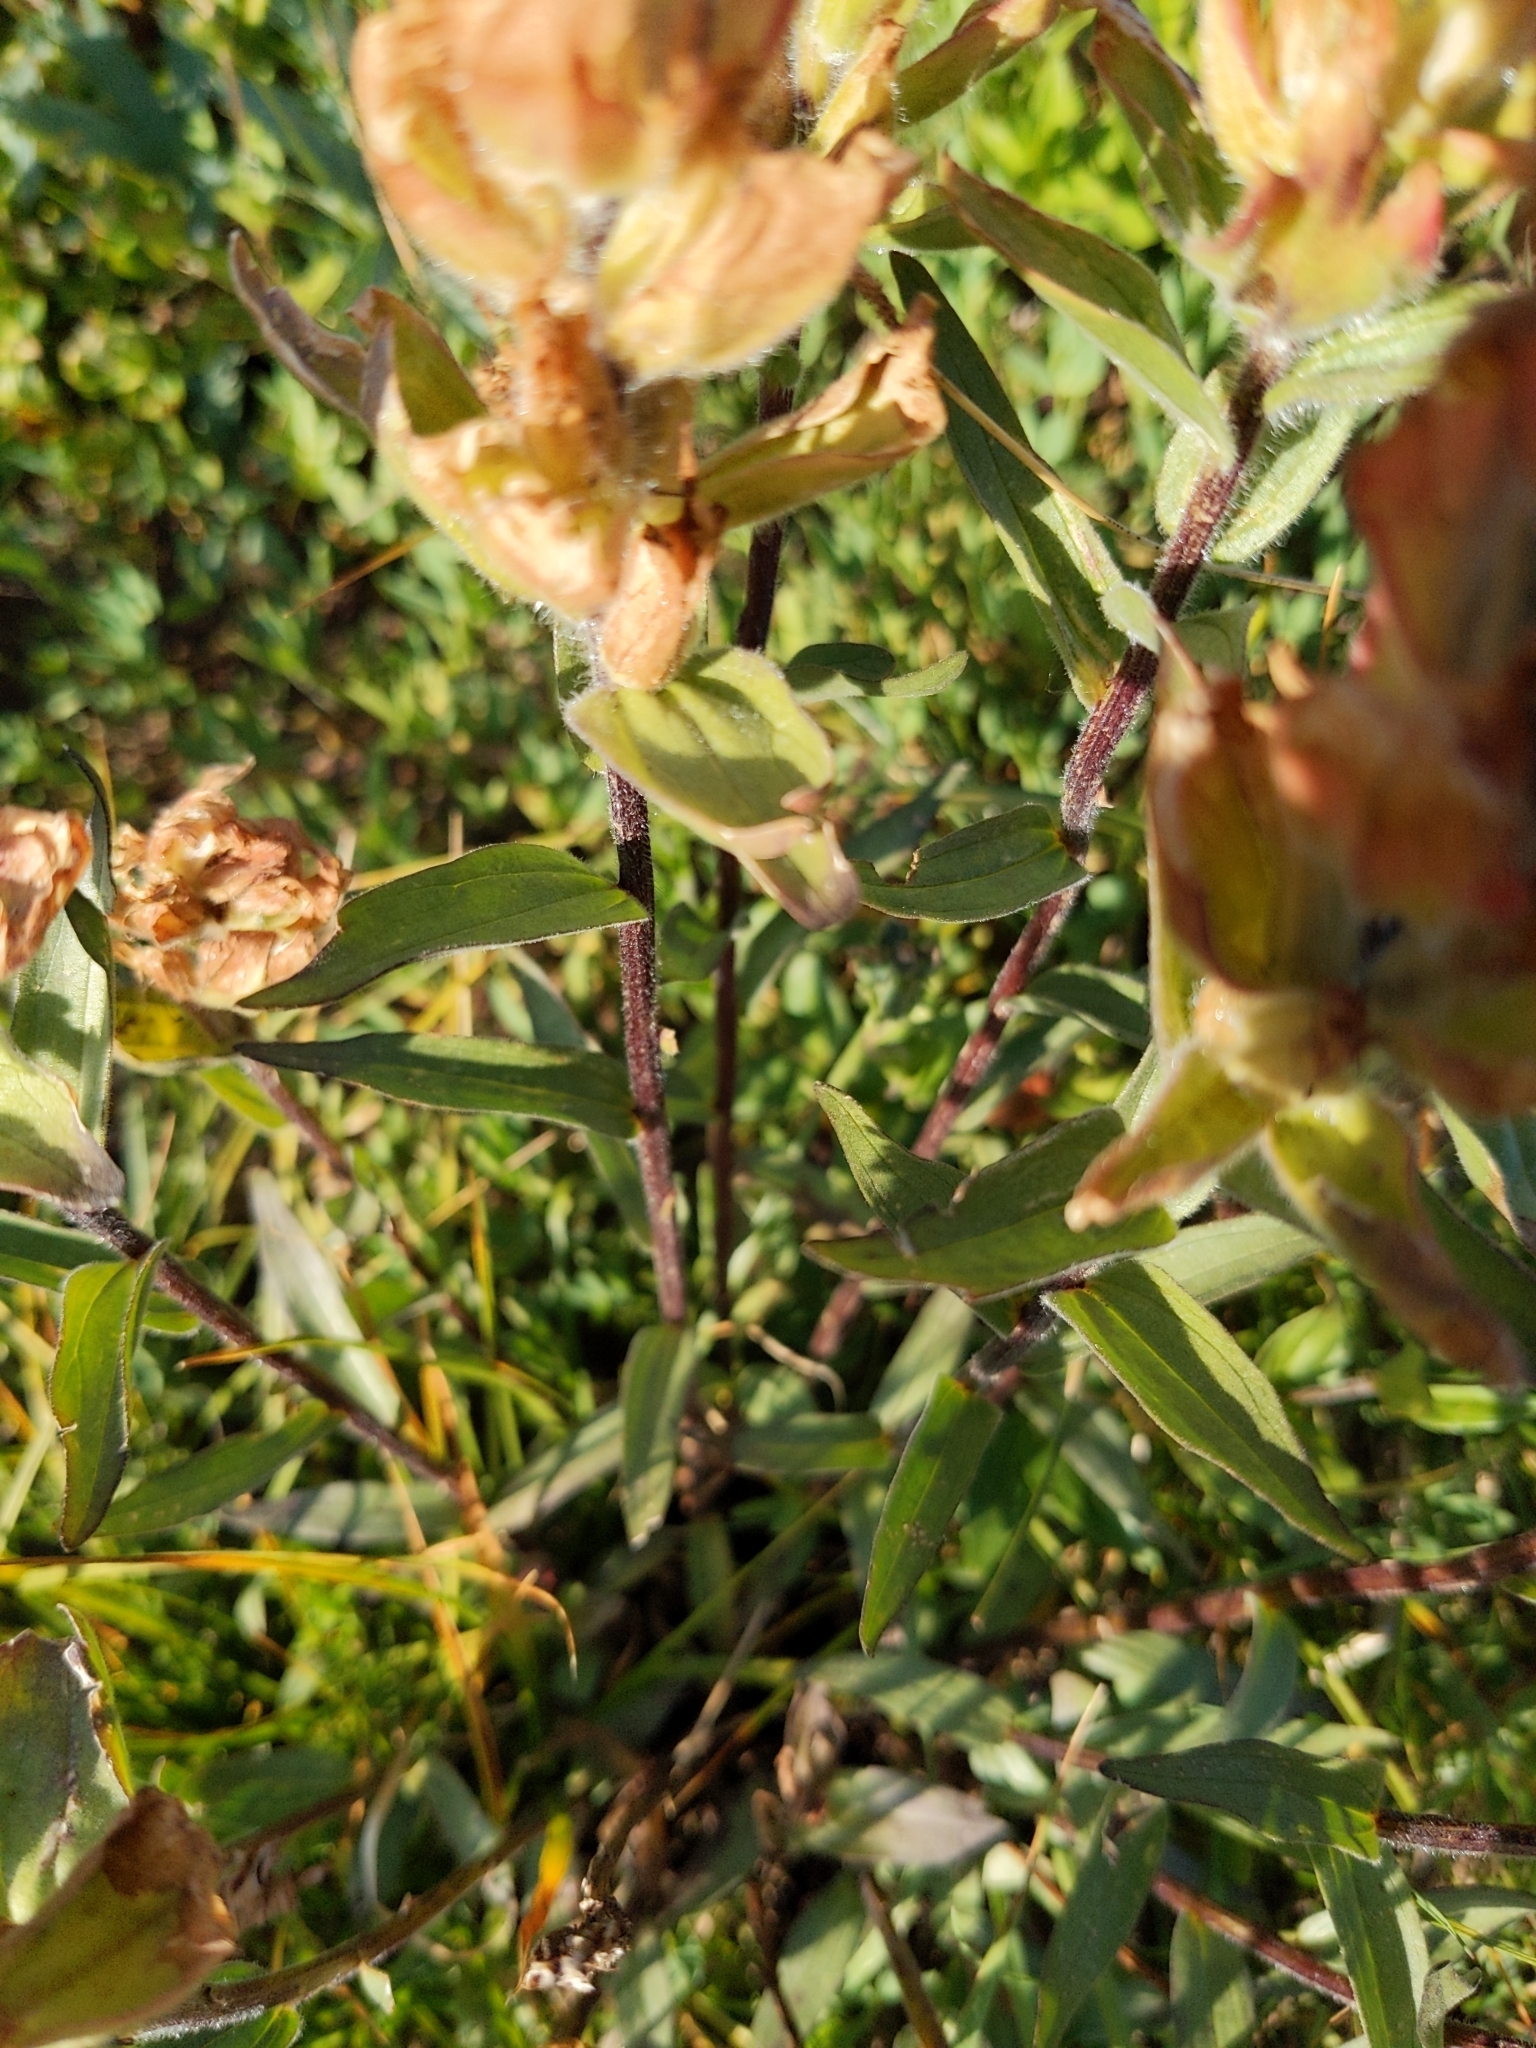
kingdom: Plantae
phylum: Tracheophyta
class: Magnoliopsida
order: Lamiales
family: Orobanchaceae
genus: Castilleja
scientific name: Castilleja miniata
